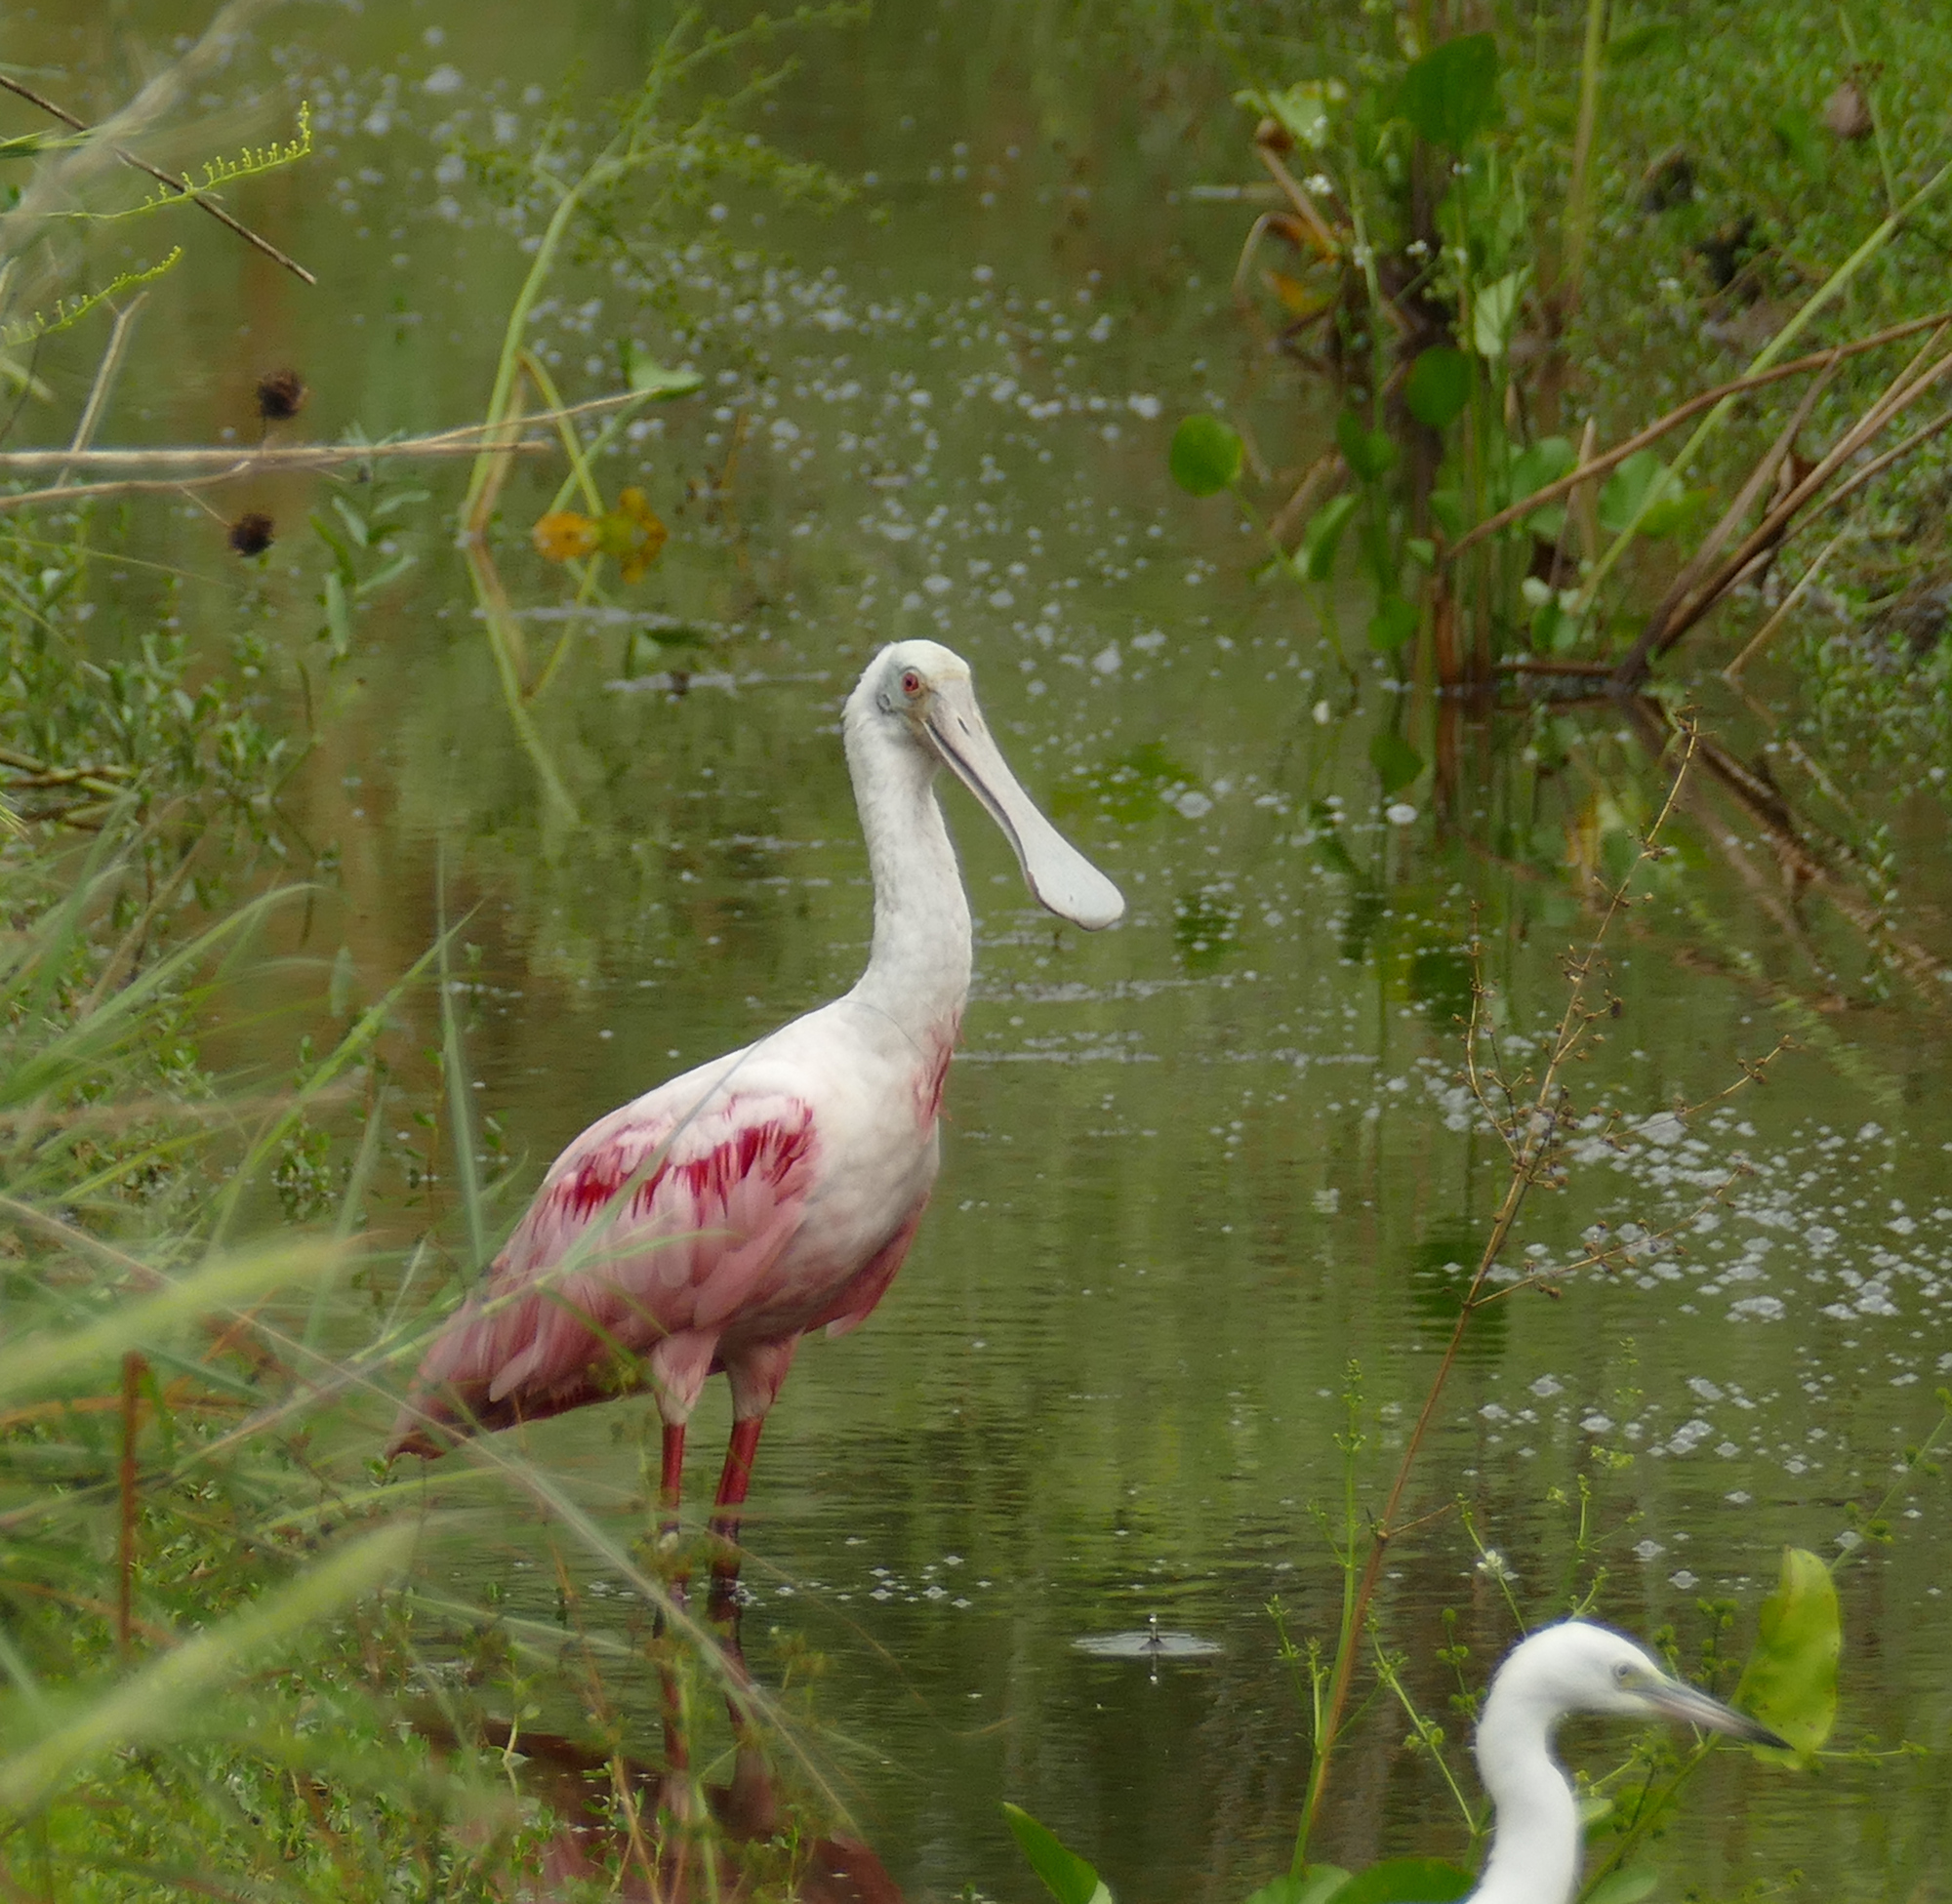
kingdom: Animalia
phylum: Chordata
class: Aves
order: Pelecaniformes
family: Threskiornithidae
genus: Platalea
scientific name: Platalea ajaja
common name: Roseate spoonbill
